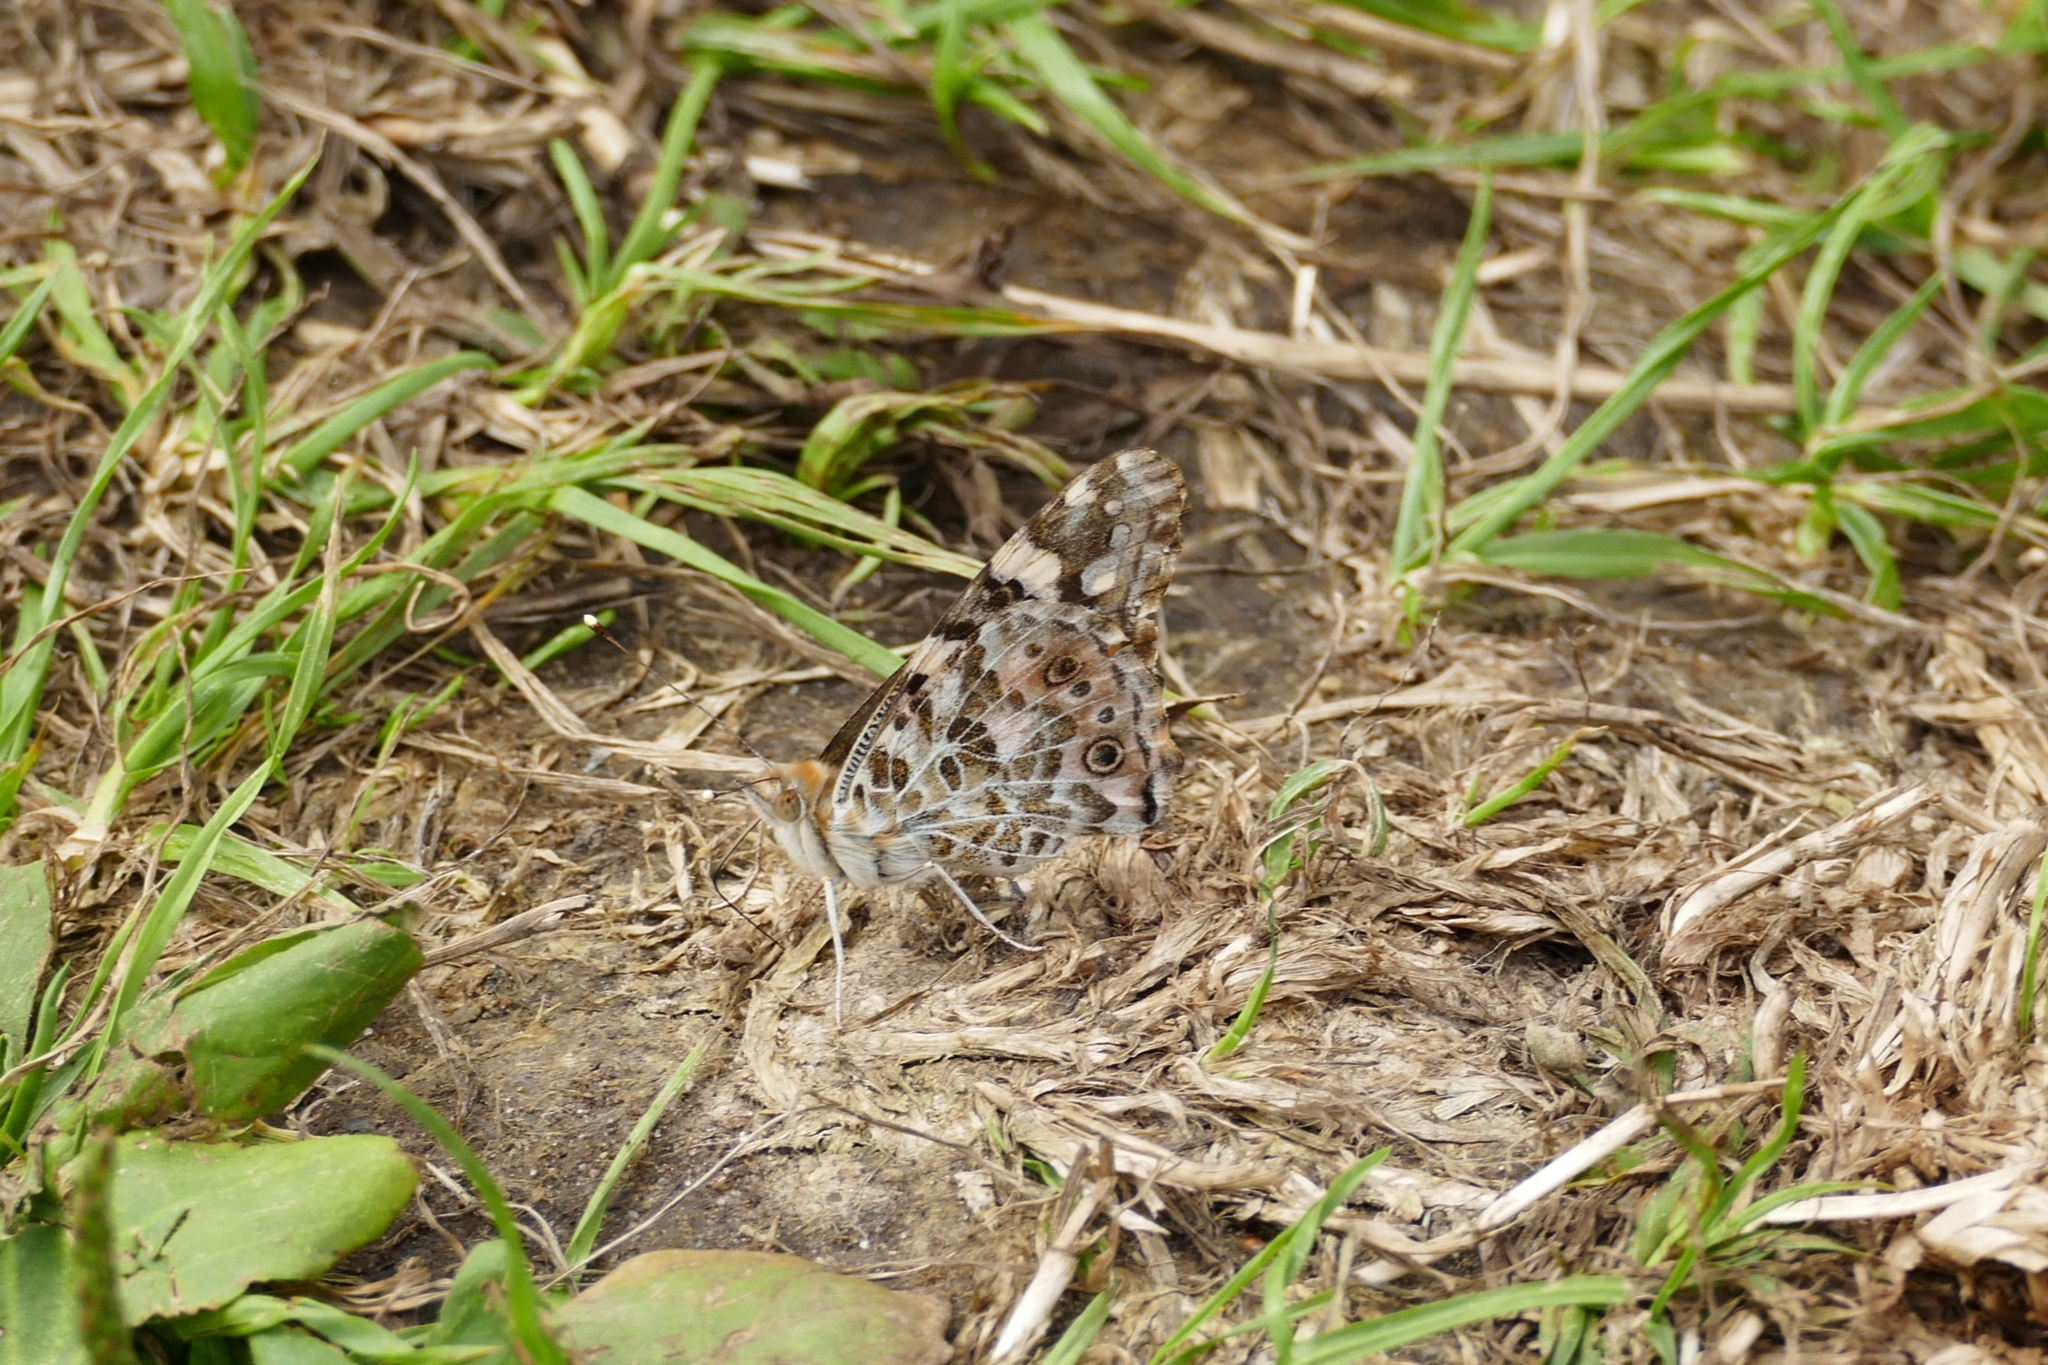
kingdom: Animalia
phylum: Arthropoda
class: Insecta
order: Lepidoptera
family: Nymphalidae
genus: Vanessa
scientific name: Vanessa cardui
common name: Painted lady
